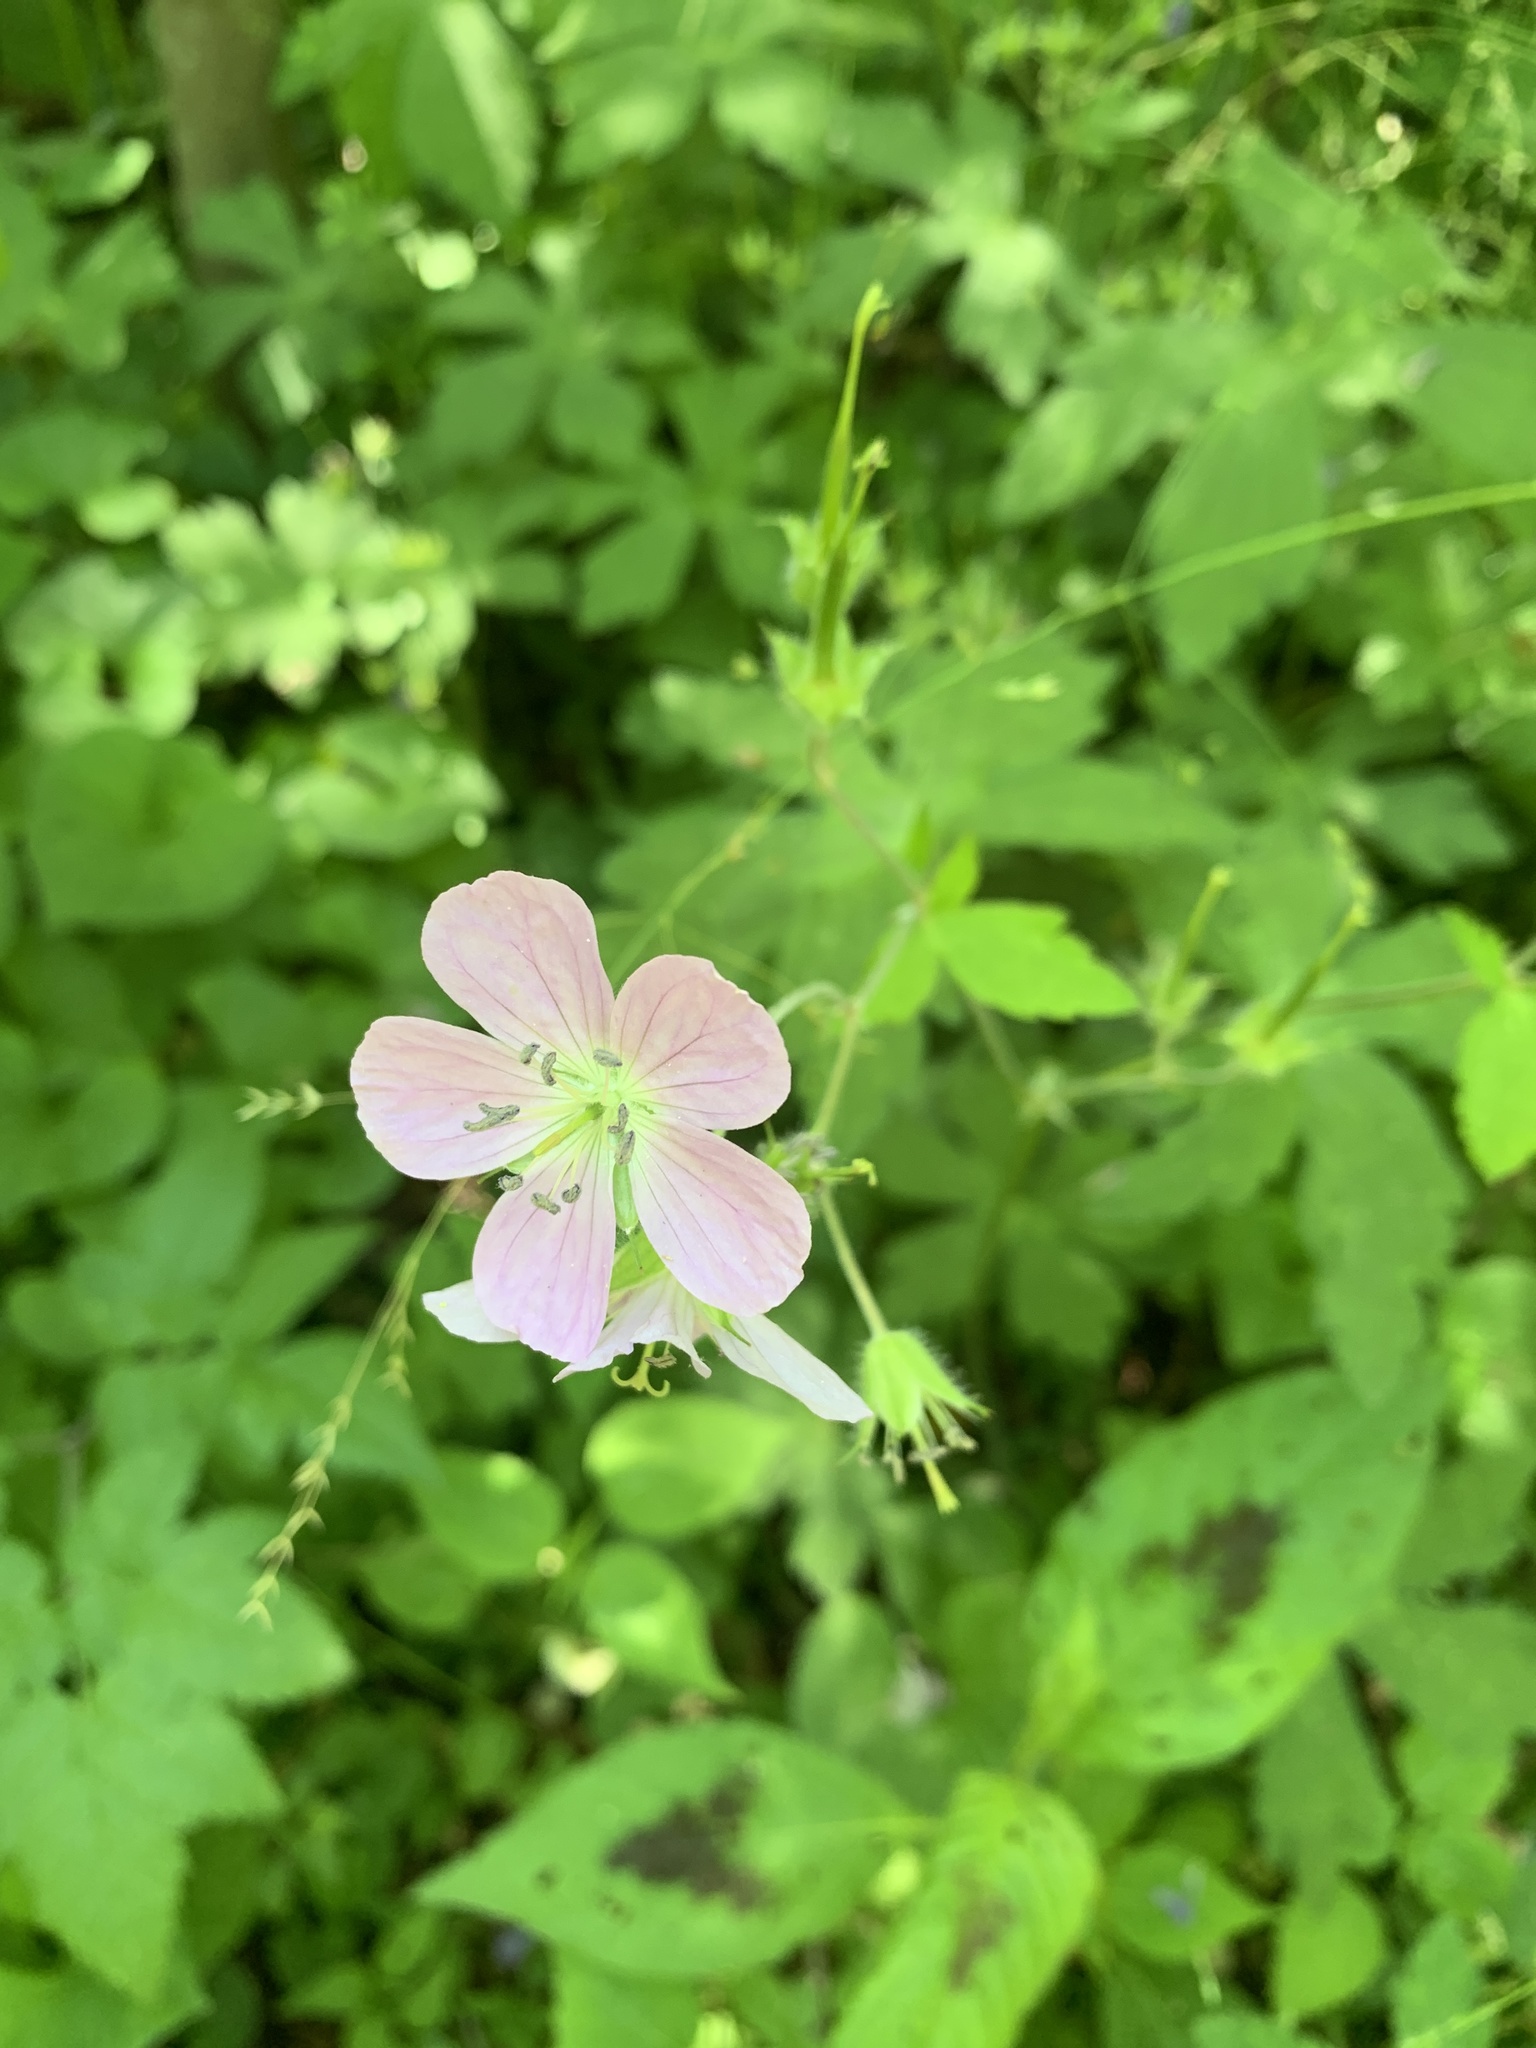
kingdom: Plantae
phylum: Tracheophyta
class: Magnoliopsida
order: Geraniales
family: Geraniaceae
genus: Geranium
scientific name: Geranium maculatum
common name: Spotted geranium
